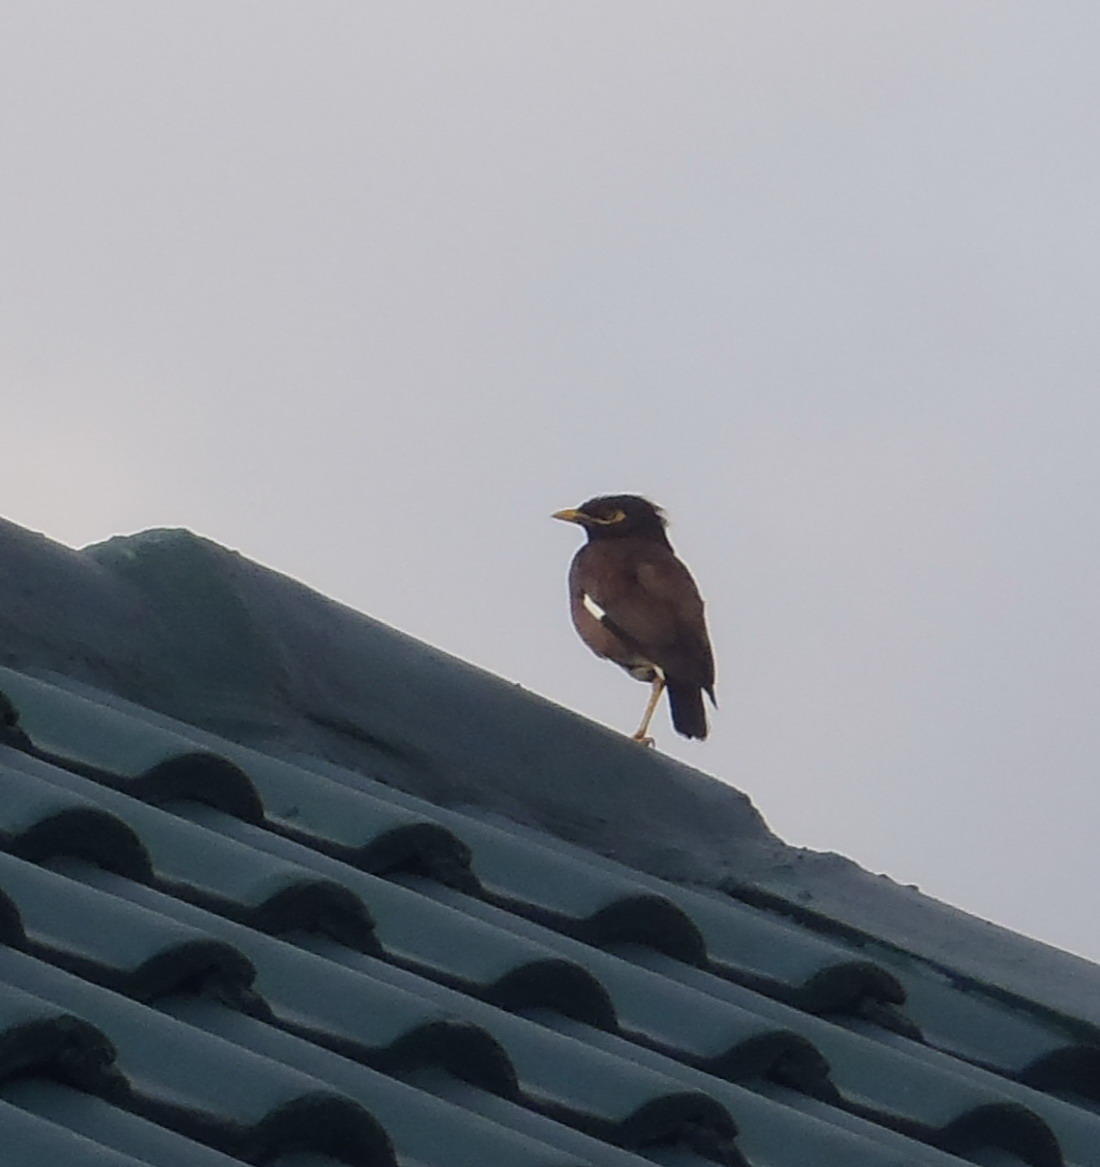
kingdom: Animalia
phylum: Chordata
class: Aves
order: Passeriformes
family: Sturnidae
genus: Acridotheres
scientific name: Acridotheres tristis
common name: Common myna
